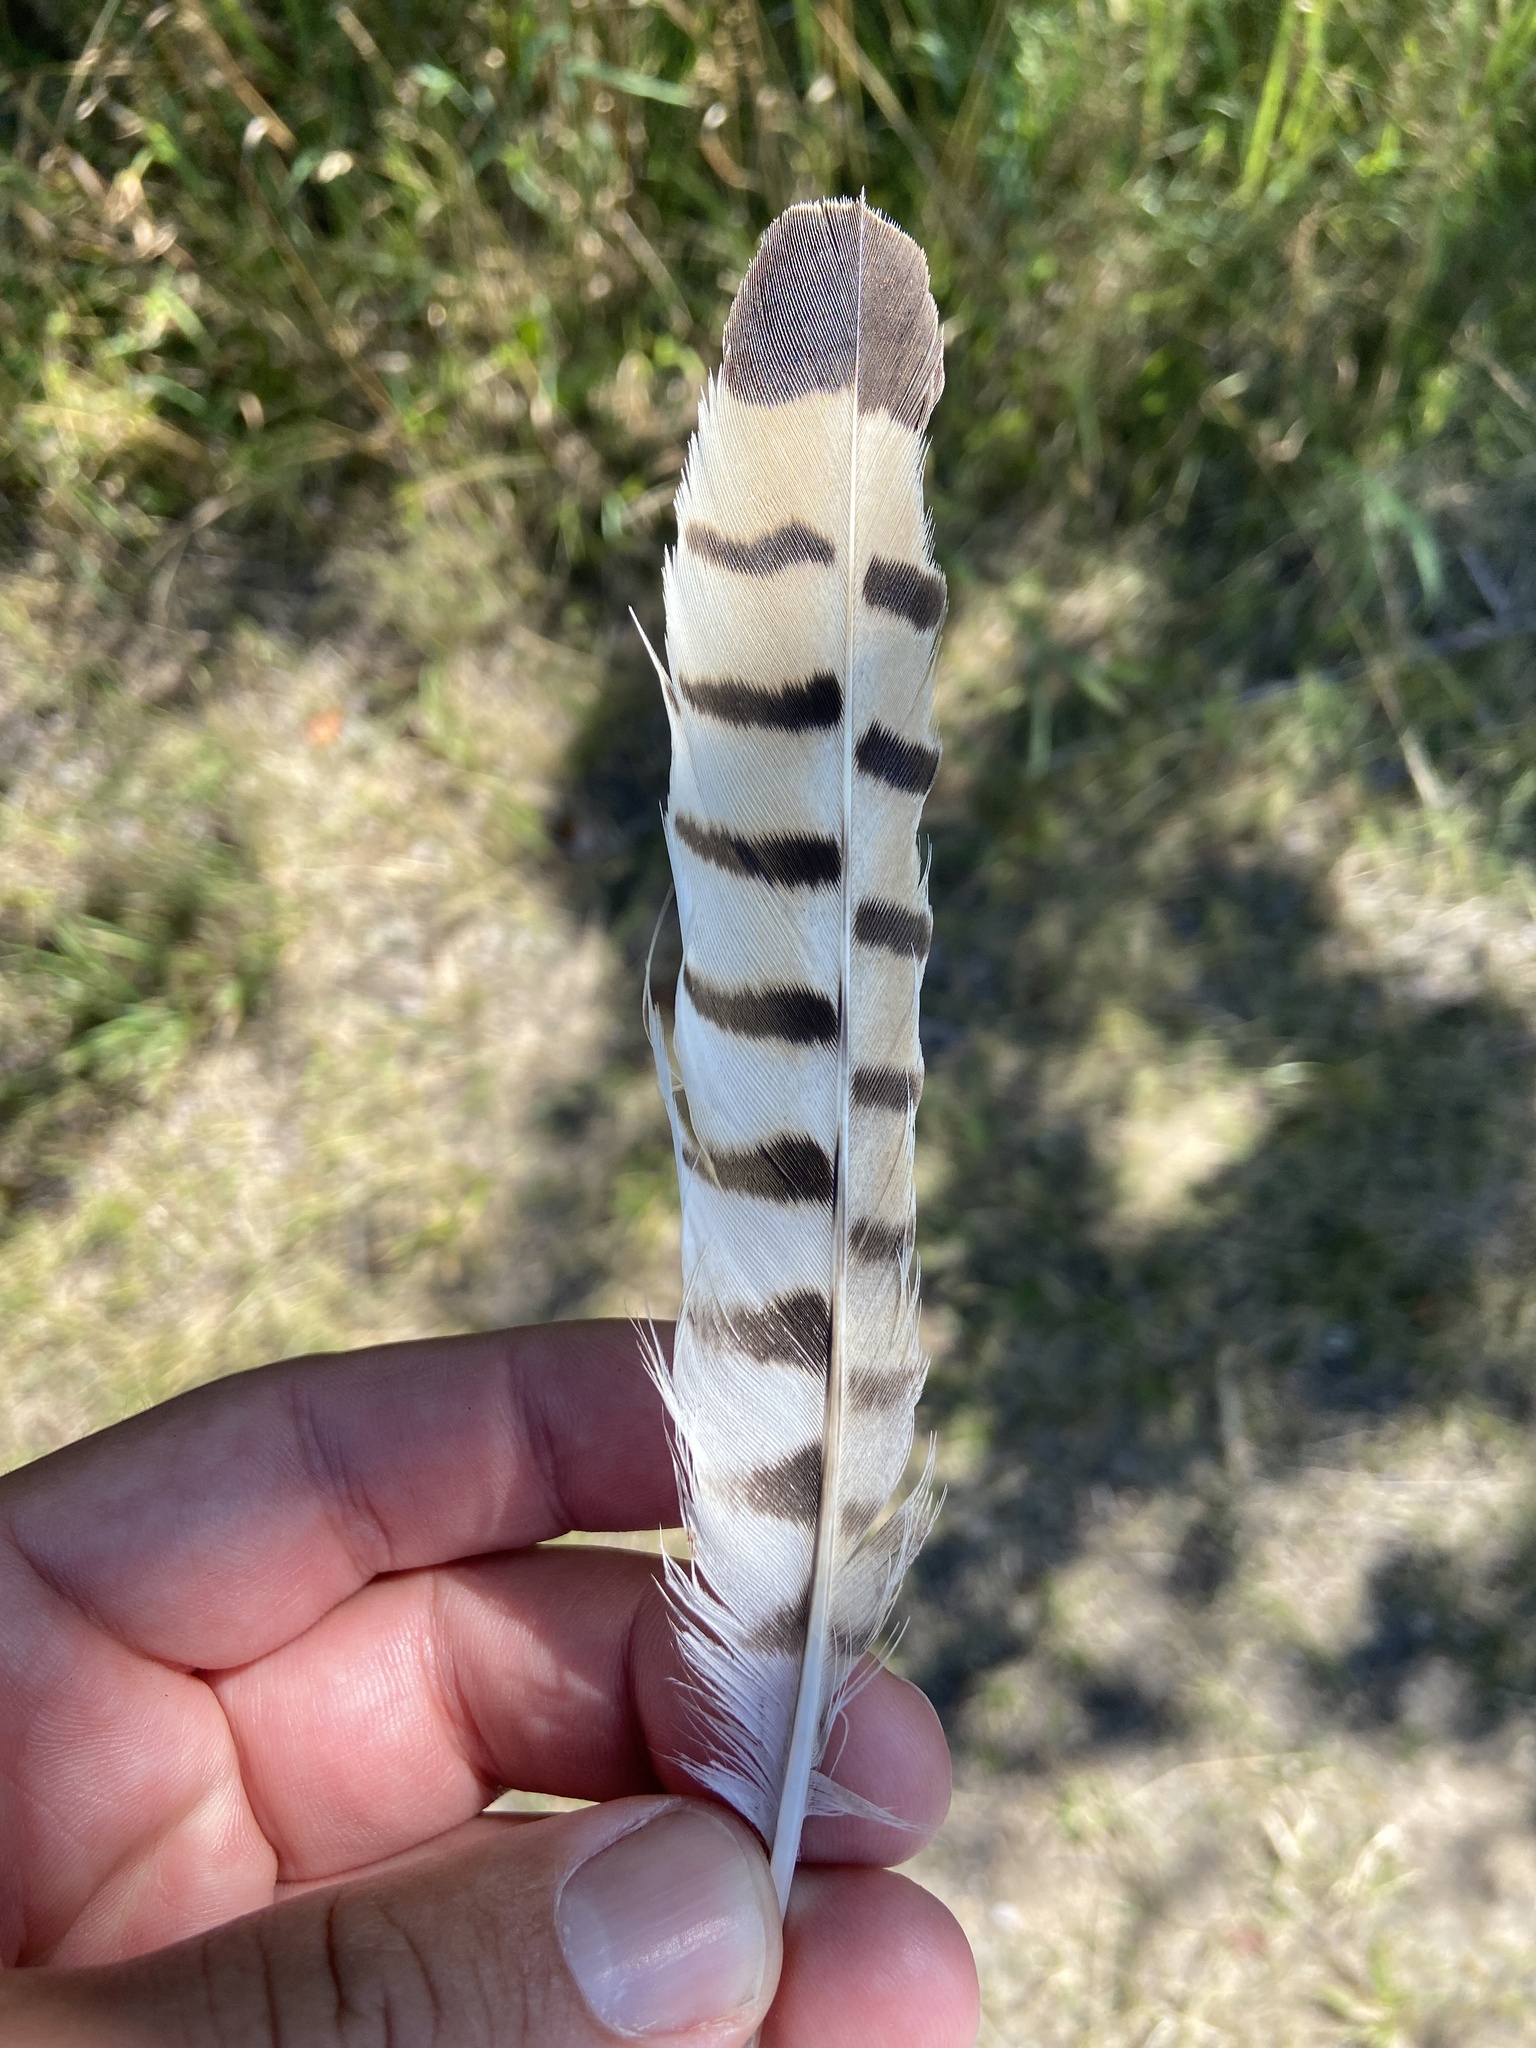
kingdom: Animalia
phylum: Chordata
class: Aves
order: Falconiformes
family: Falconidae
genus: Falco
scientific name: Falco tinnunculus
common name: Common kestrel
